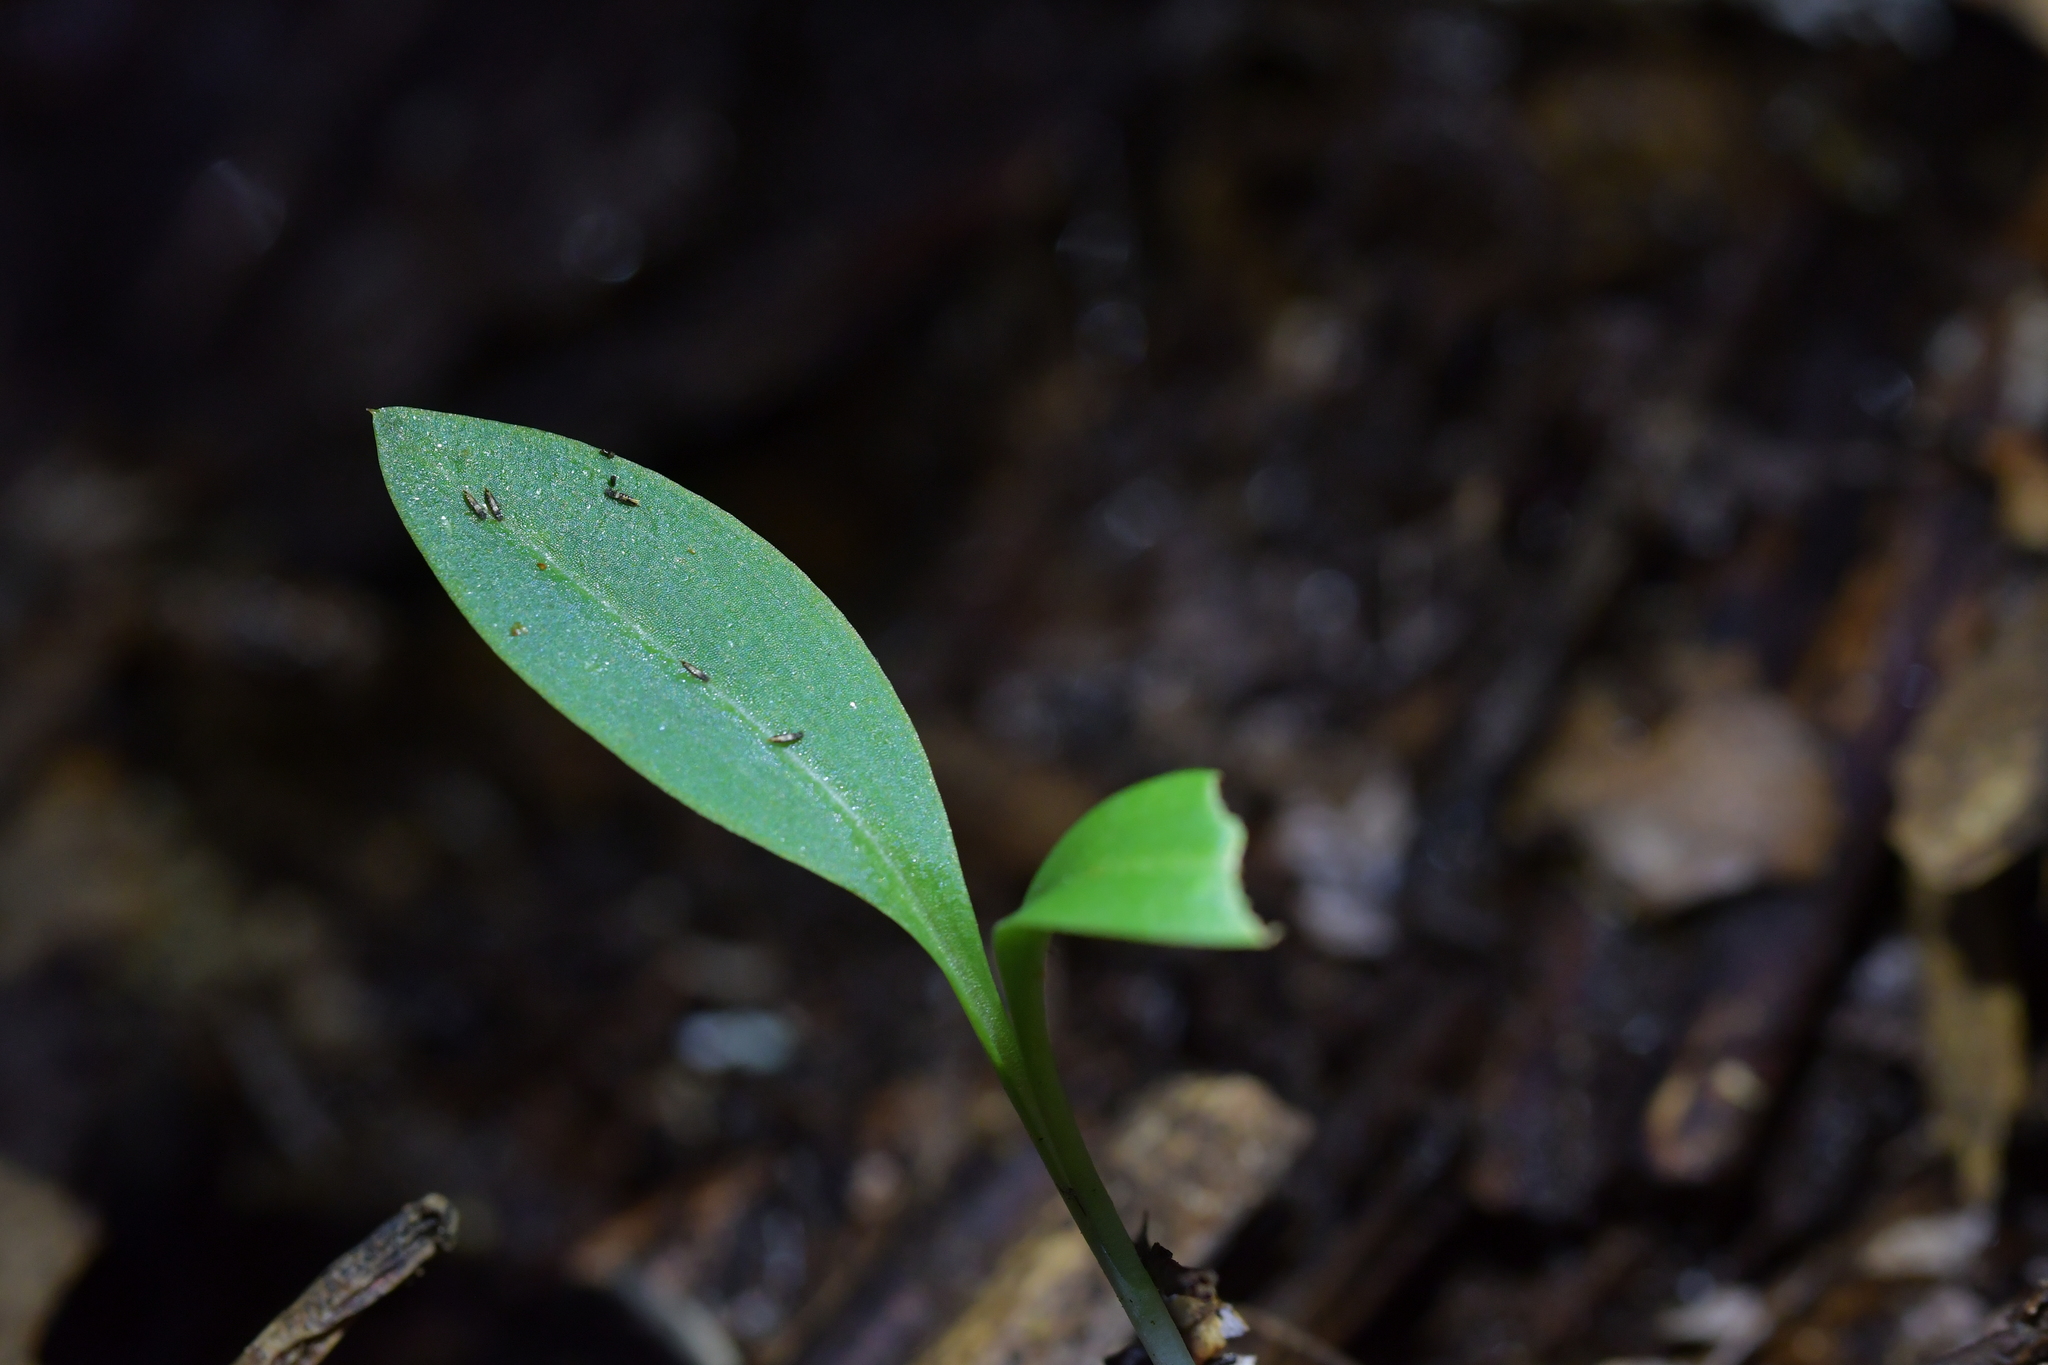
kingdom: Plantae
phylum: Tracheophyta
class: Liliopsida
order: Asparagales
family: Orchidaceae
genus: Chiloglottis
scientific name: Chiloglottis cornuta
